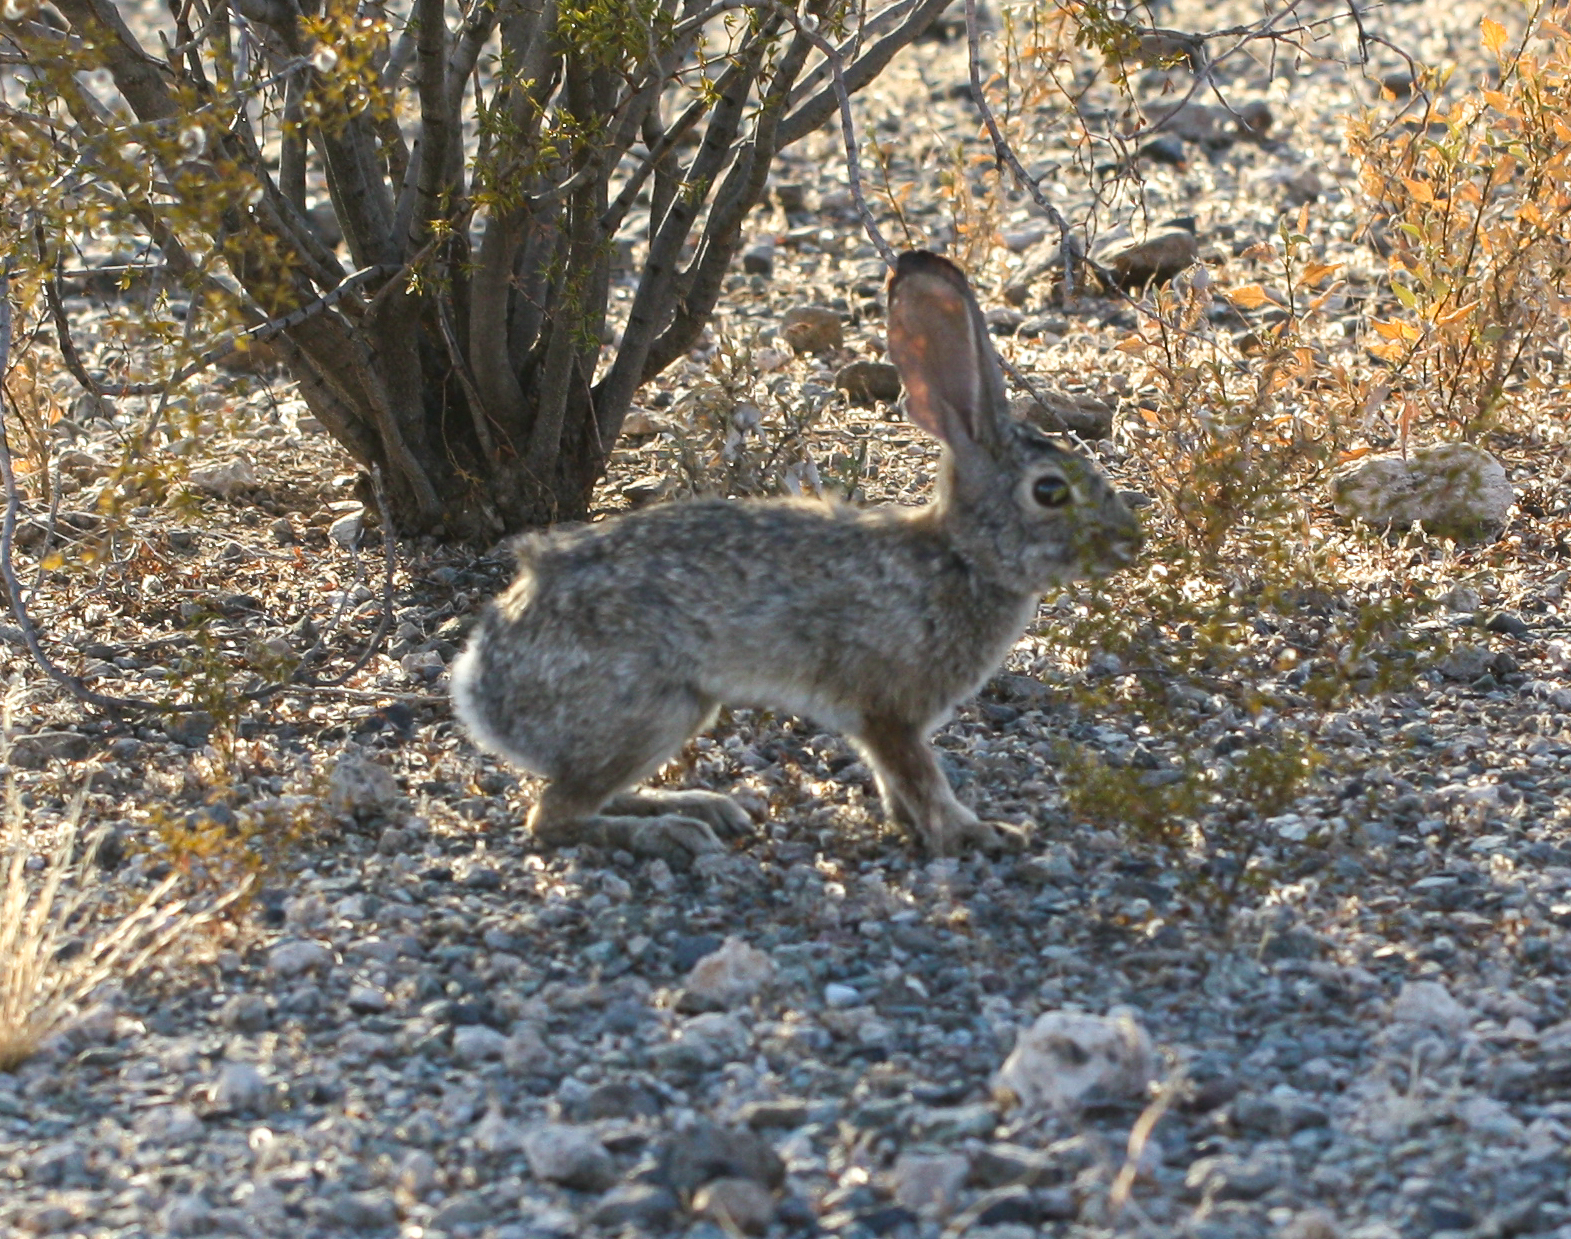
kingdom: Animalia
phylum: Chordata
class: Mammalia
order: Lagomorpha
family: Leporidae
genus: Sylvilagus
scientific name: Sylvilagus audubonii
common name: Desert cottontail
